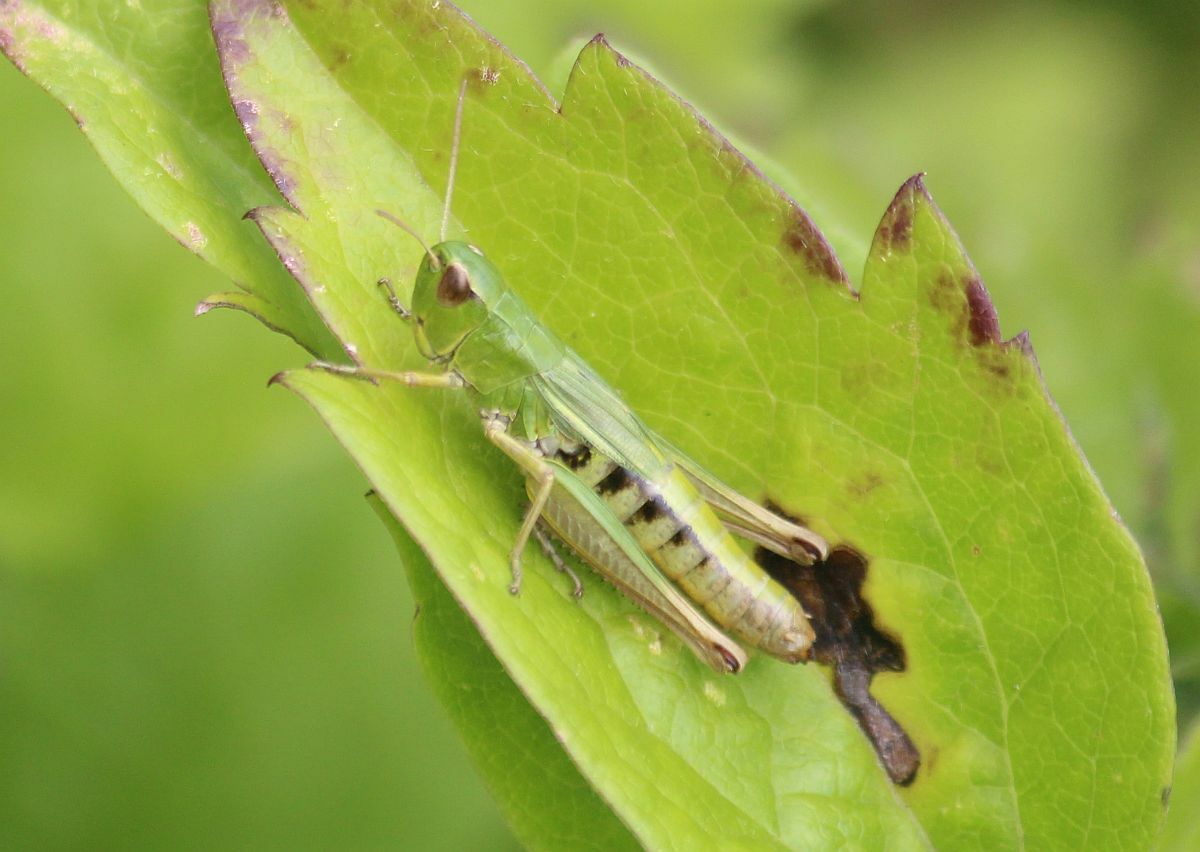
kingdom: Animalia
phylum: Arthropoda
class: Insecta
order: Orthoptera
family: Acrididae
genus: Pseudochorthippus
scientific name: Pseudochorthippus parallelus
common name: Meadow grasshopper
